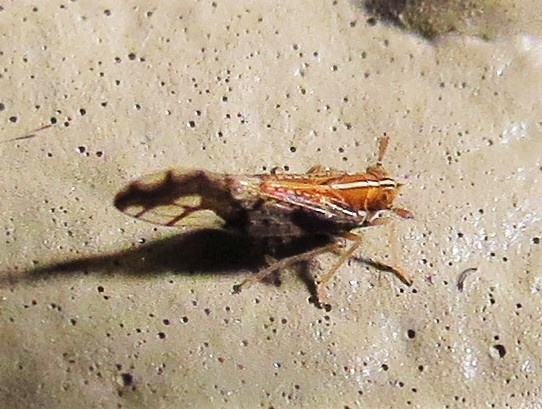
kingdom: Animalia
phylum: Arthropoda
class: Insecta
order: Hemiptera
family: Delphacidae
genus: Liburniella
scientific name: Liburniella ornata
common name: Ornate planthopper
